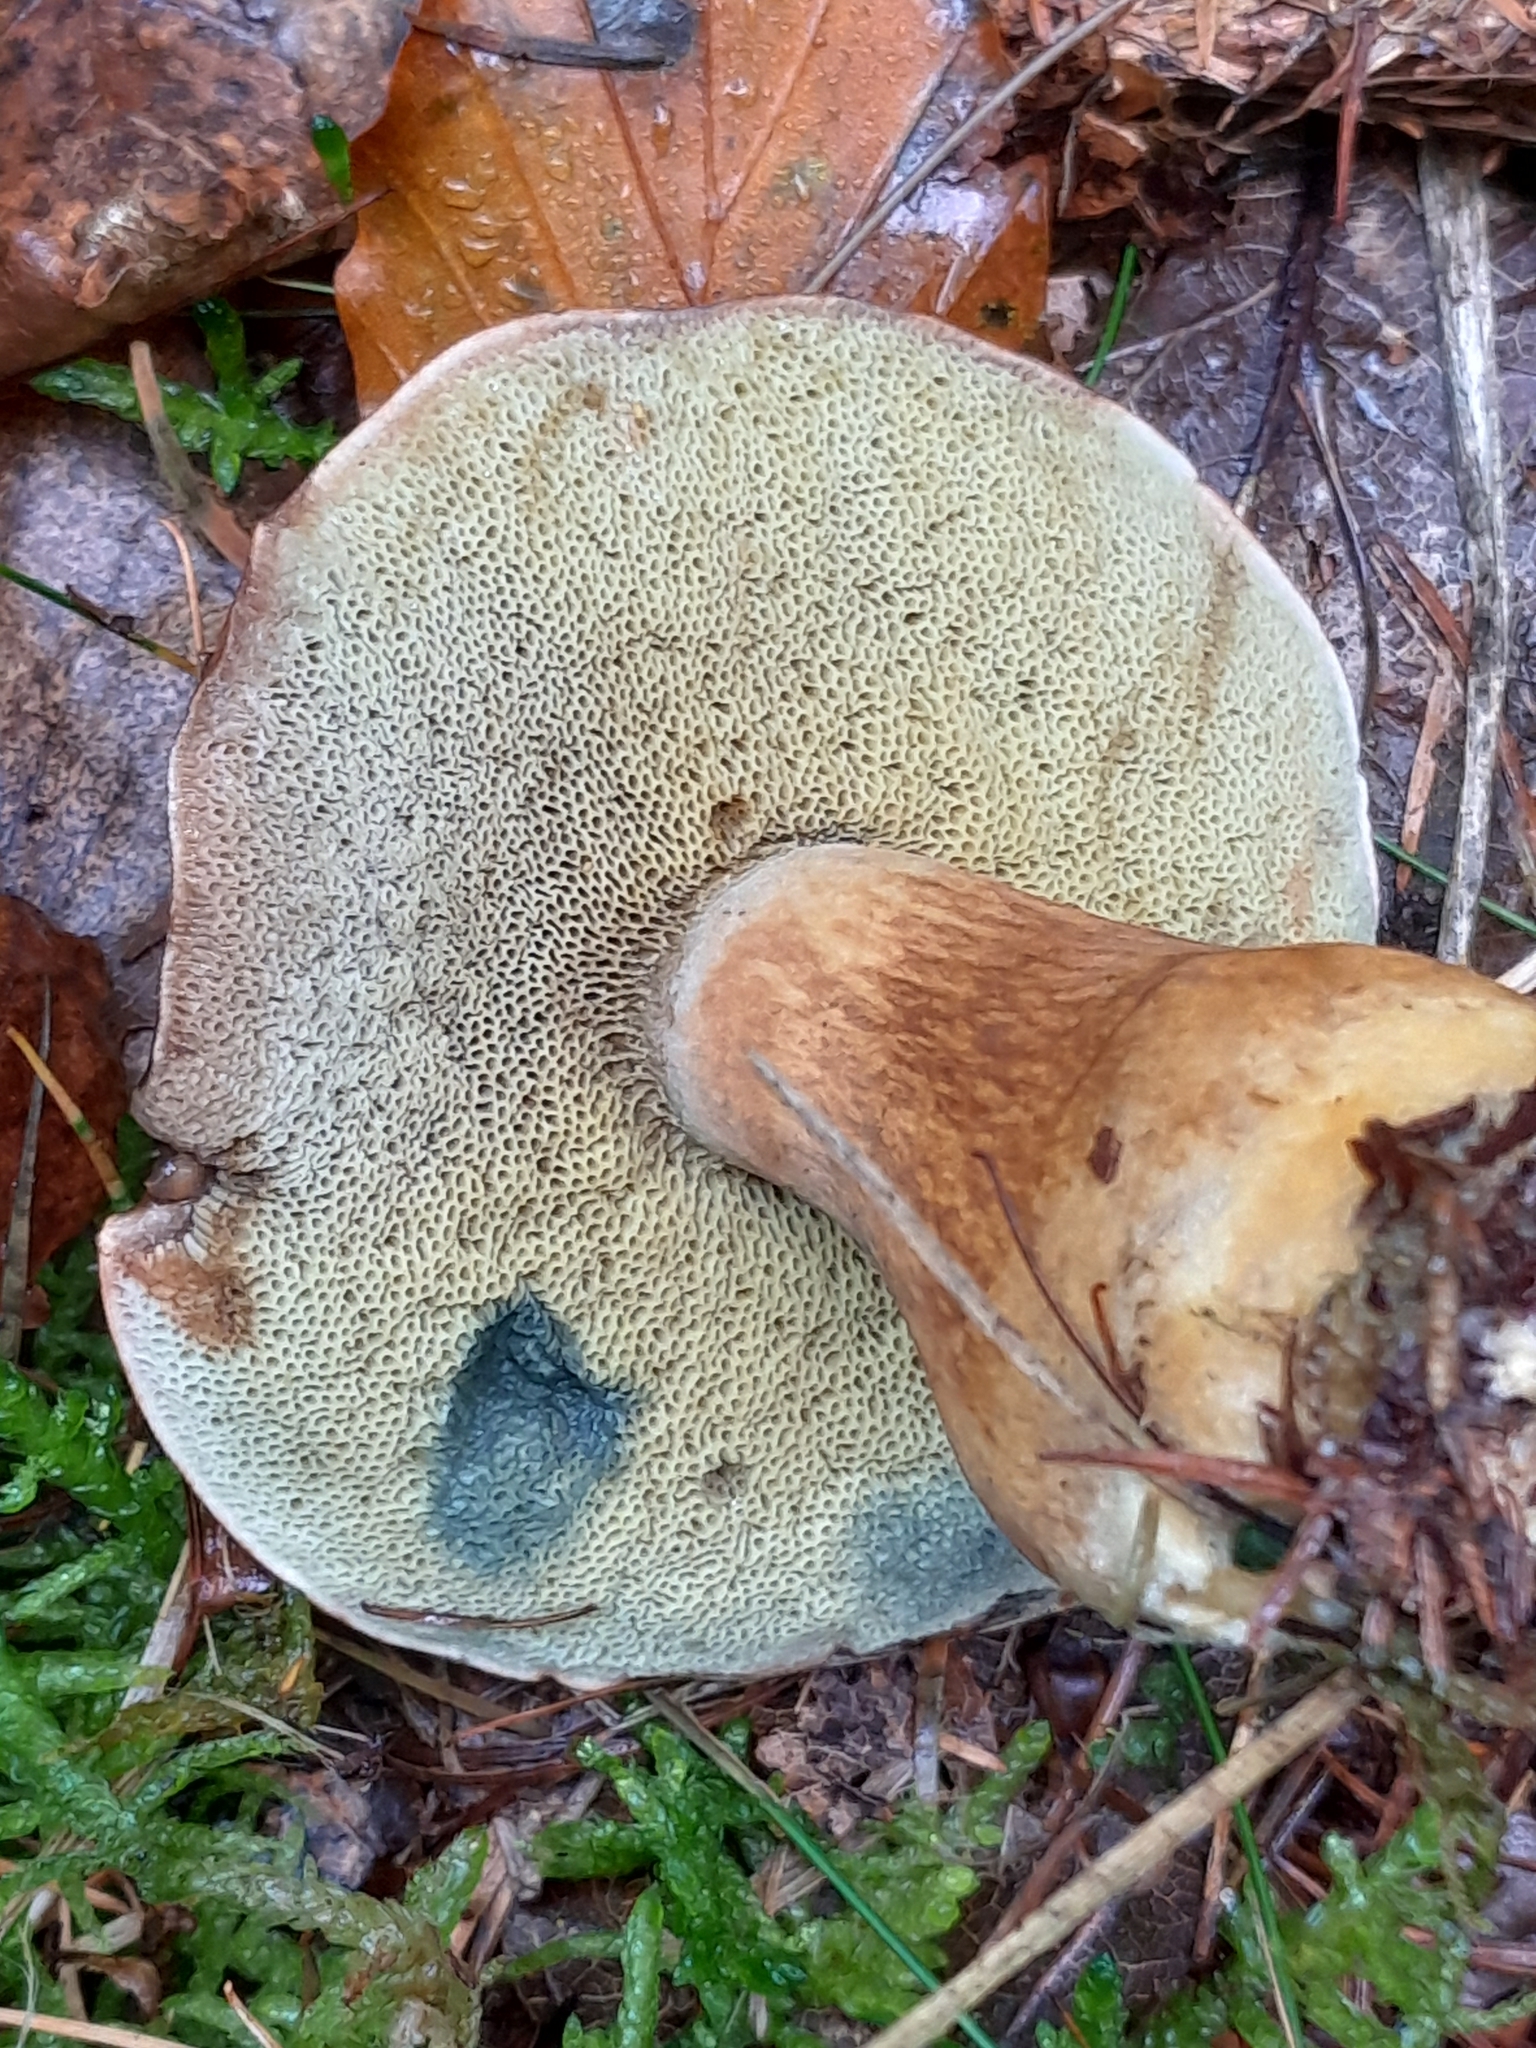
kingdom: Fungi
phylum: Basidiomycota
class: Agaricomycetes
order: Boletales
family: Boletaceae
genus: Imleria
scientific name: Imleria badia
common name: Bay bolete
